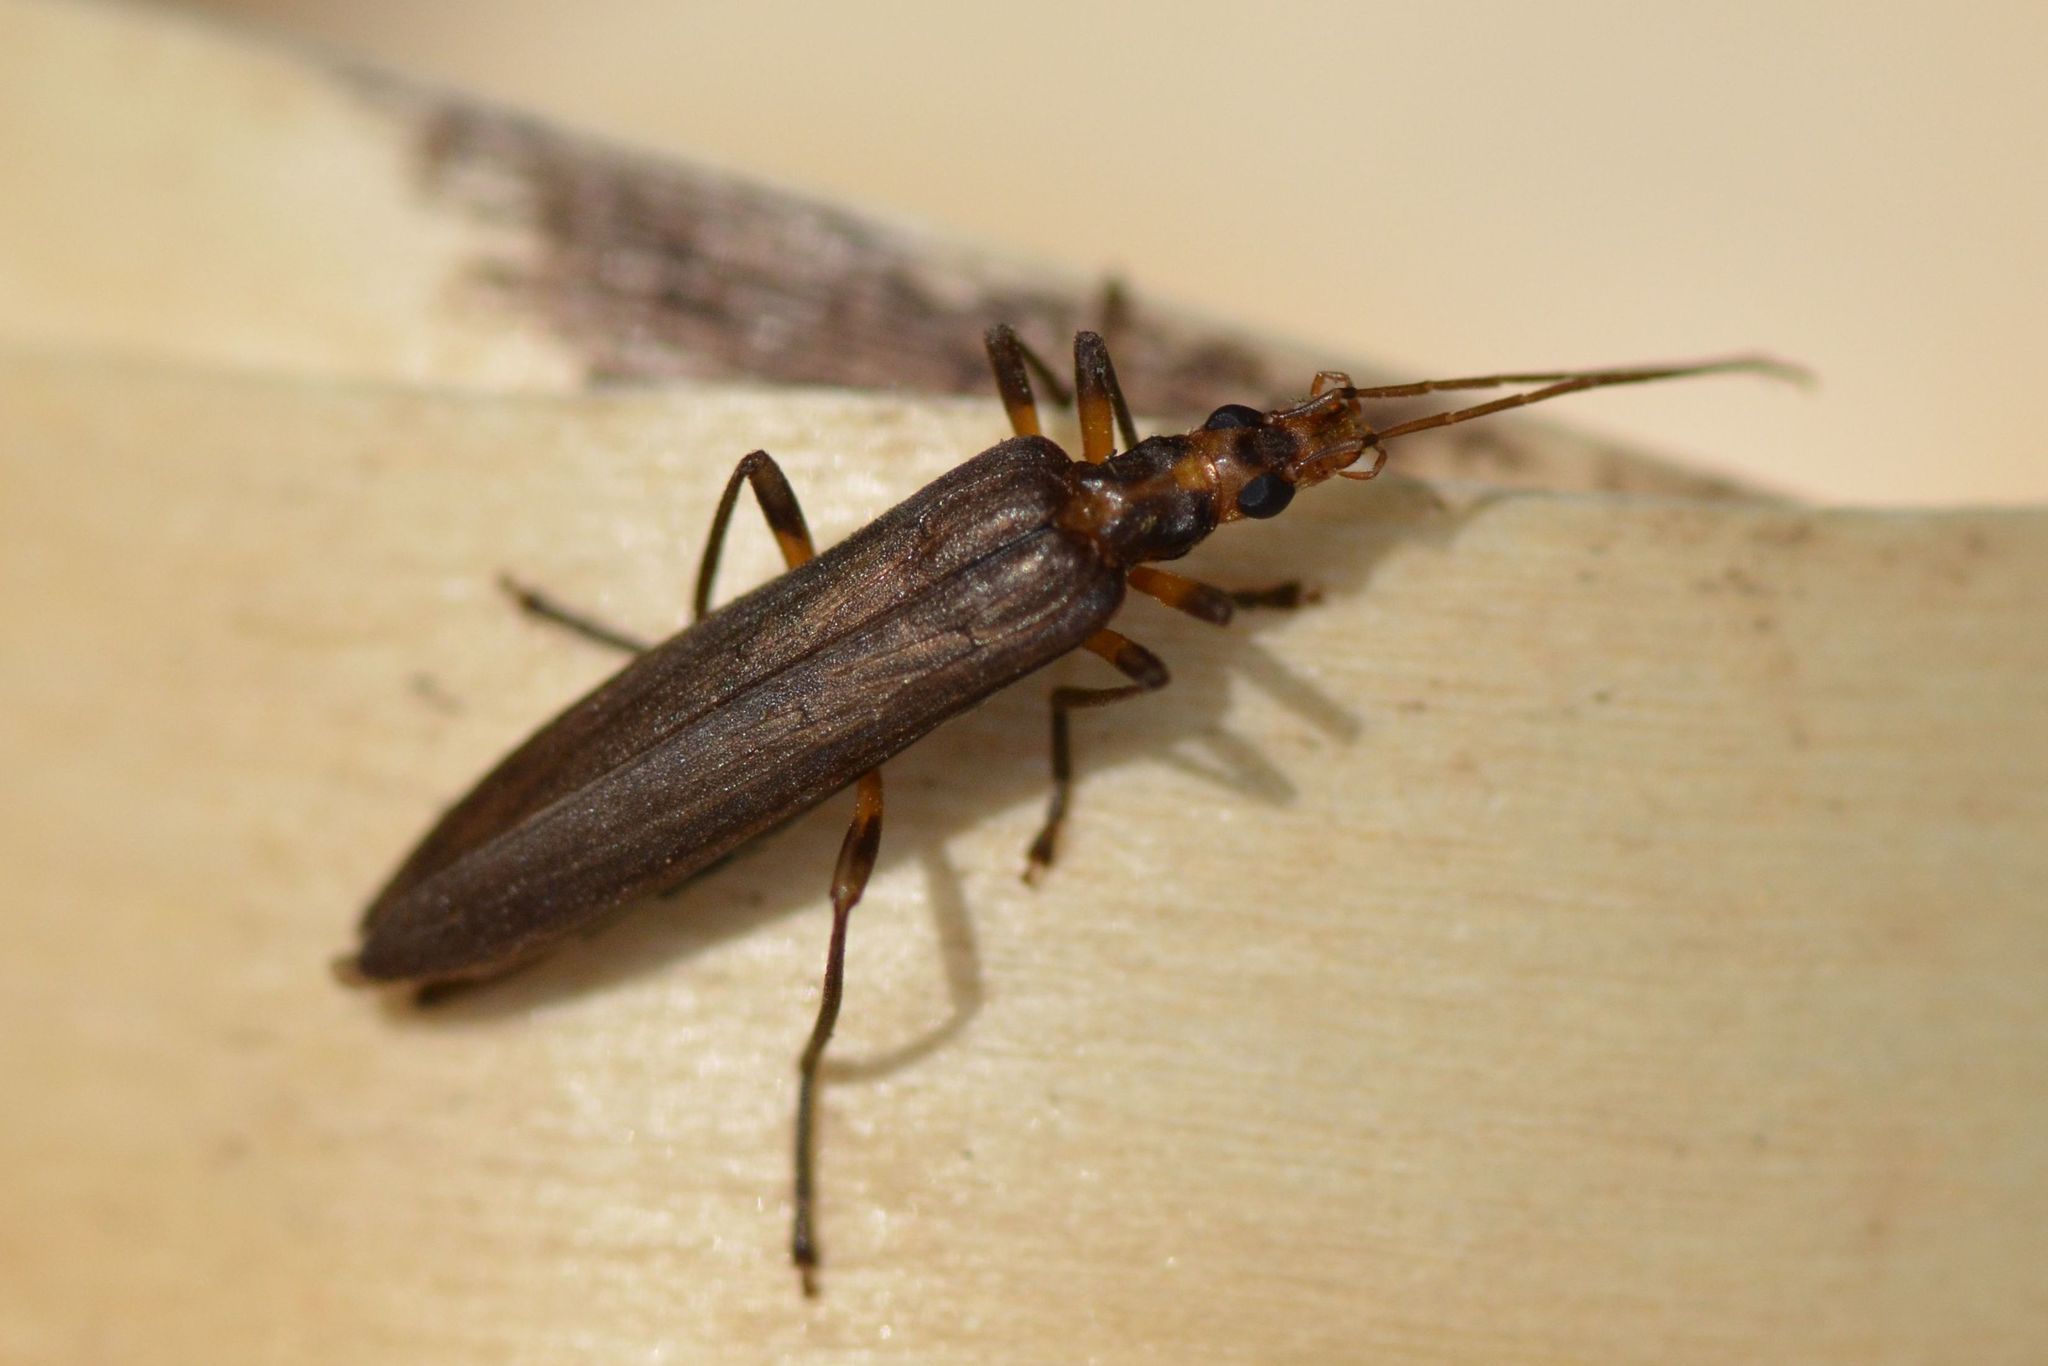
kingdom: Animalia
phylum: Arthropoda
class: Insecta
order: Coleoptera
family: Oedemeridae
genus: Oedemera
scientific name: Oedemera femoralis
